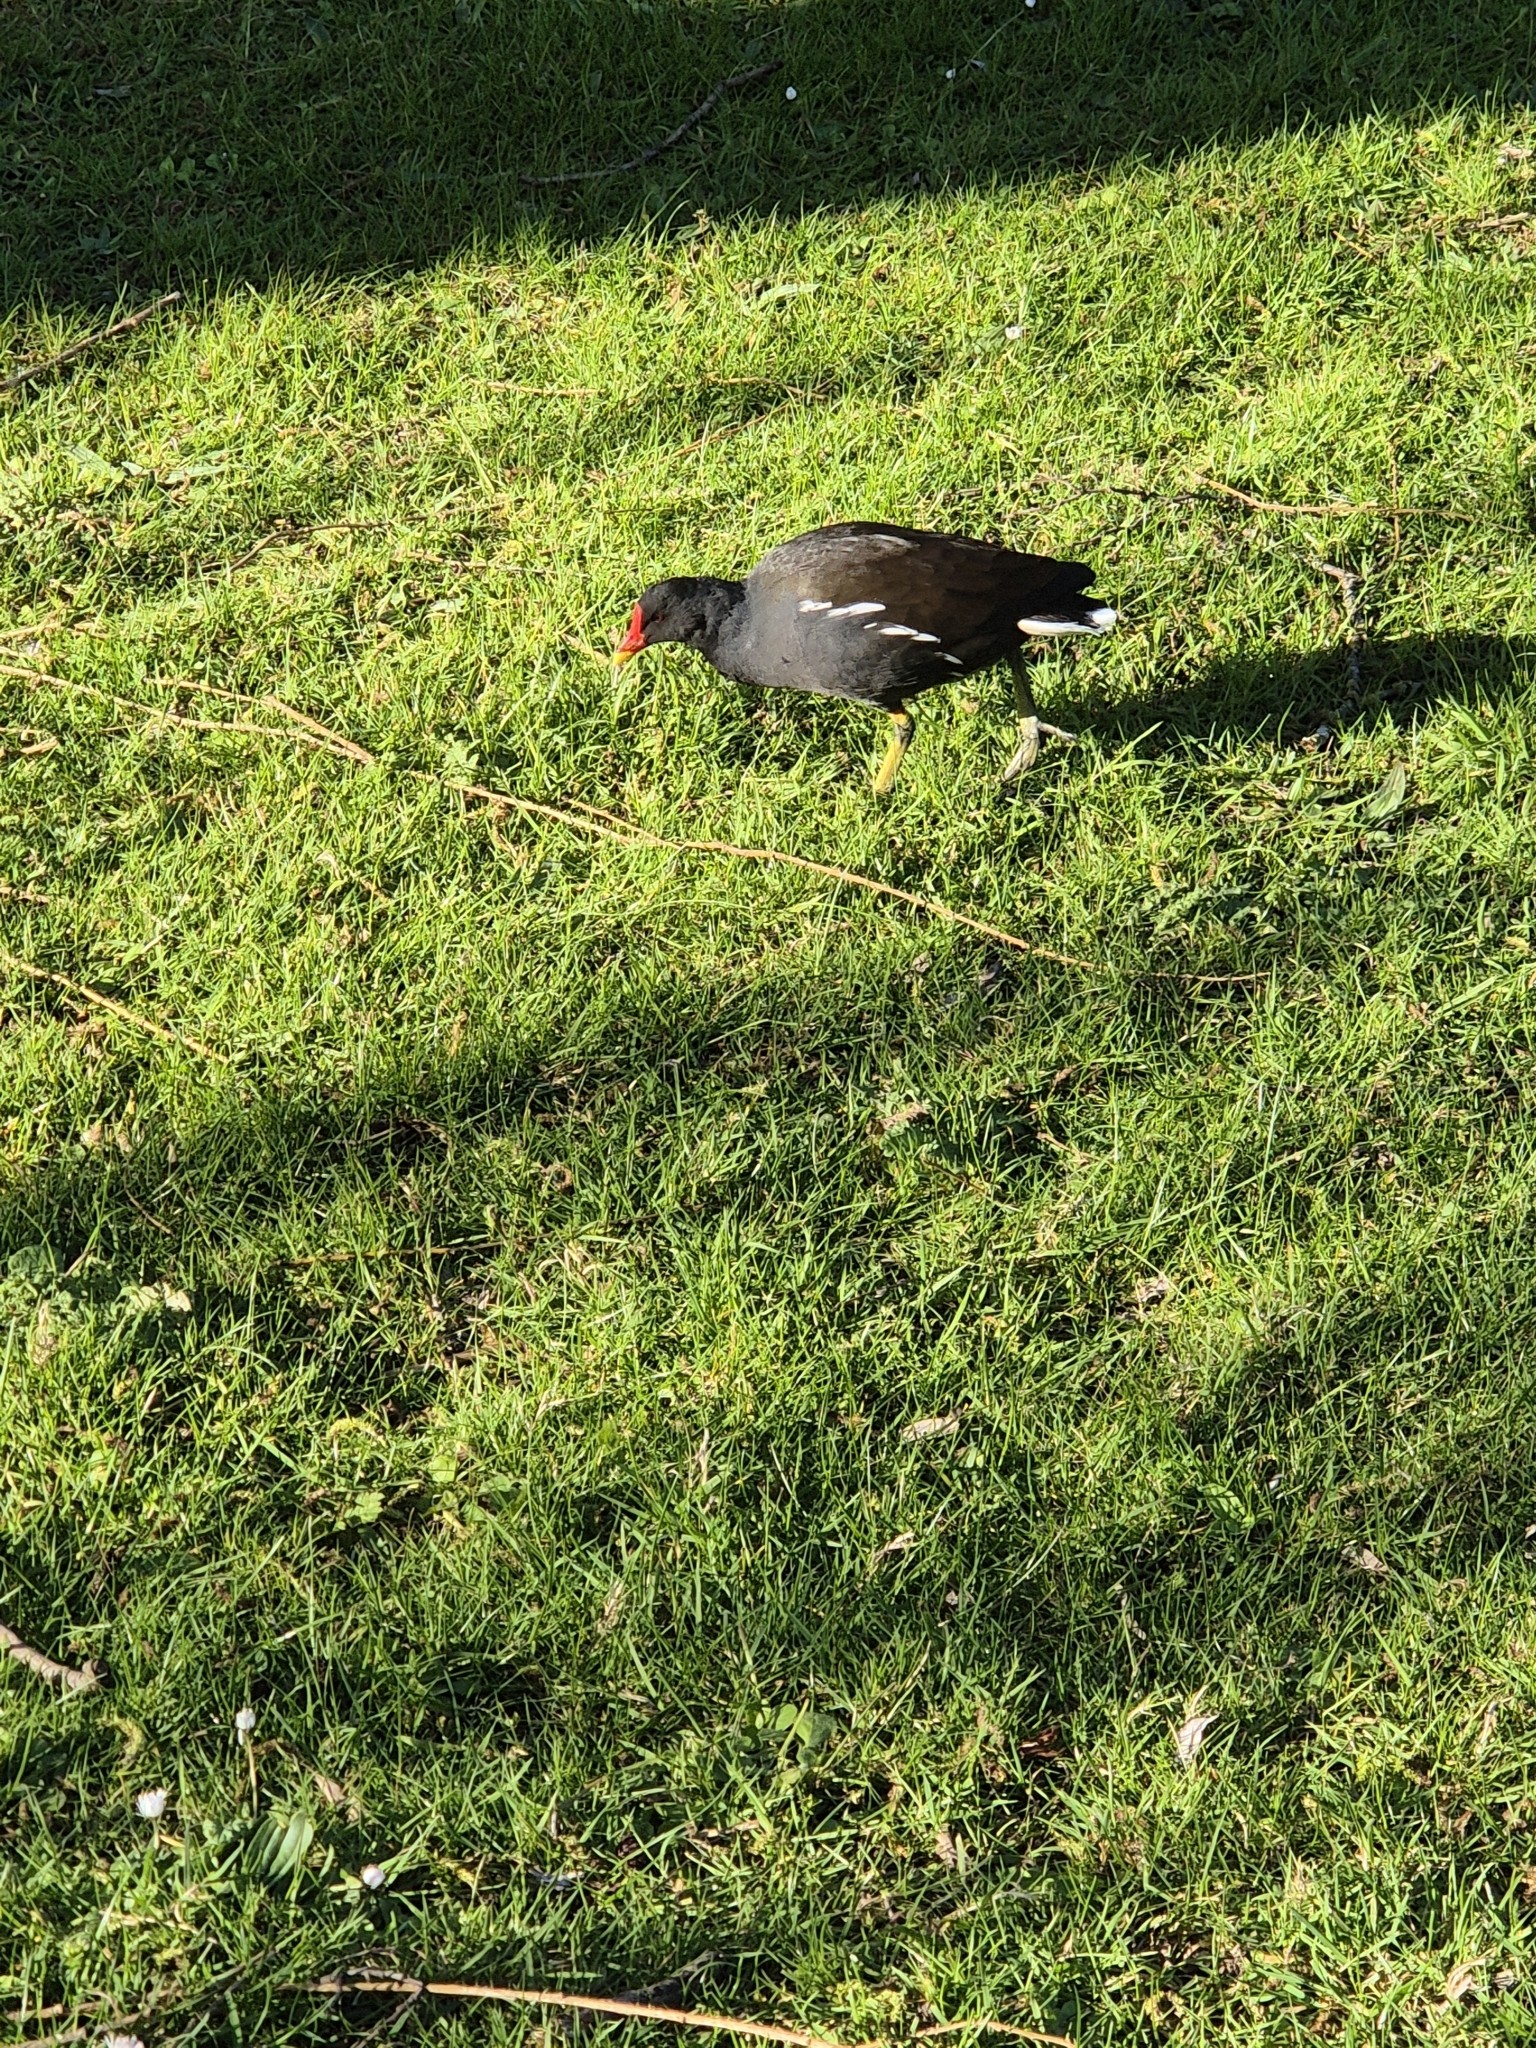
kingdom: Animalia
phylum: Chordata
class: Aves
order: Gruiformes
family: Rallidae
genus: Gallinula
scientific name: Gallinula chloropus
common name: Common moorhen
